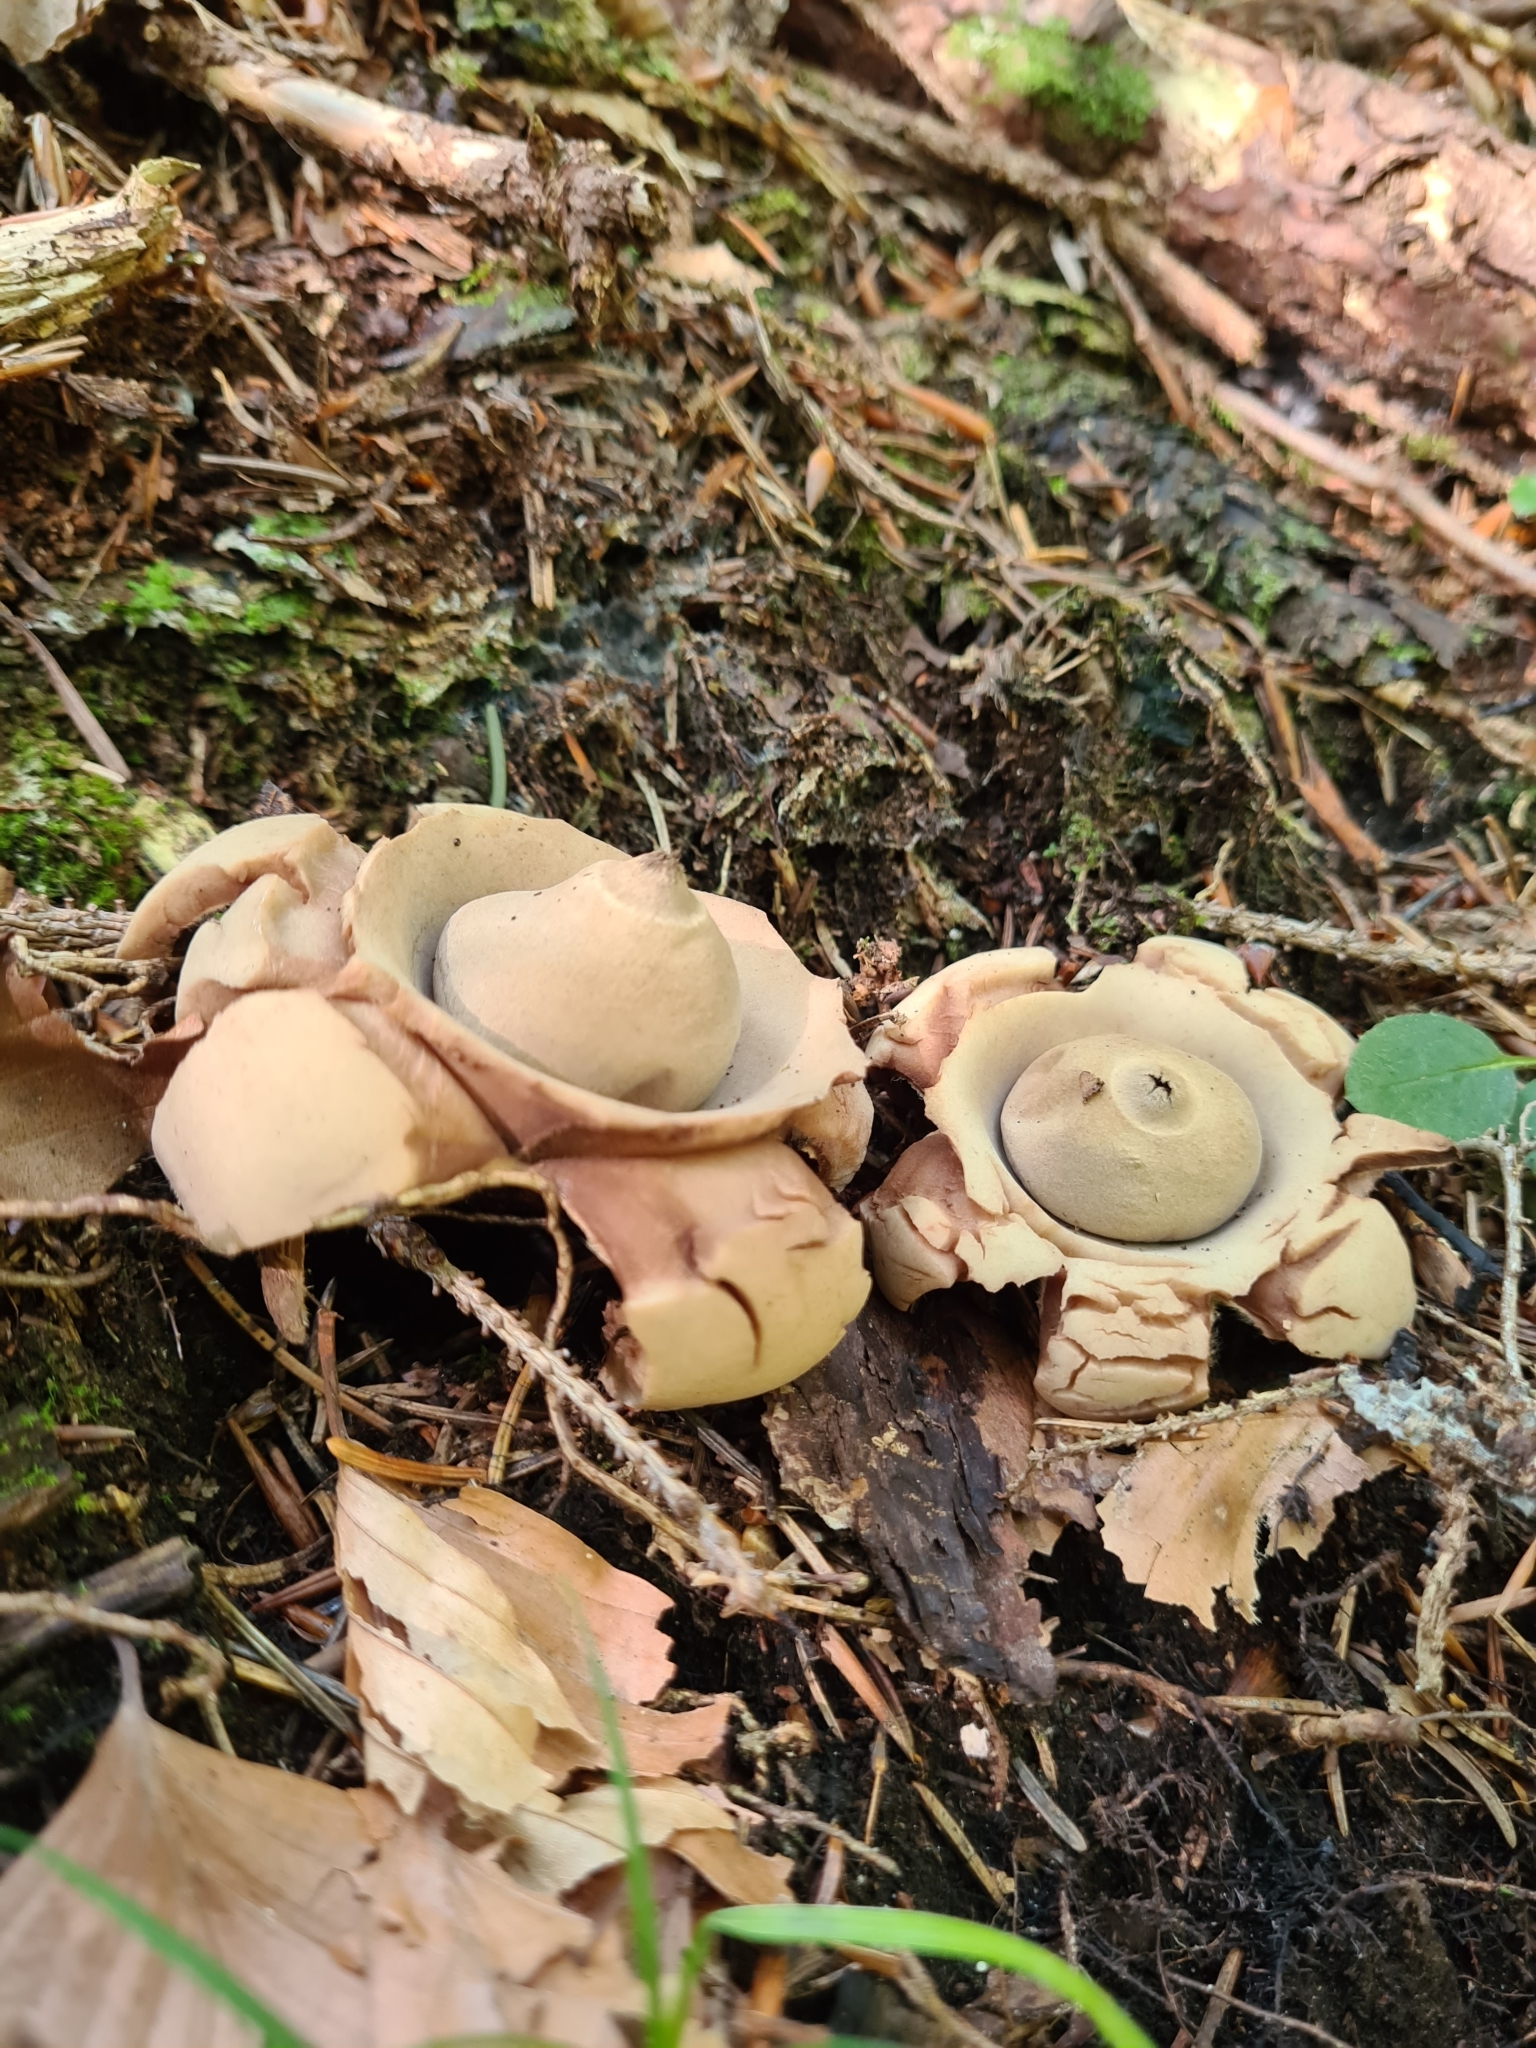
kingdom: Fungi
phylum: Basidiomycota
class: Agaricomycetes
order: Geastrales
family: Geastraceae
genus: Geastrum
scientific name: Geastrum triplex
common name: Collared earthstar
